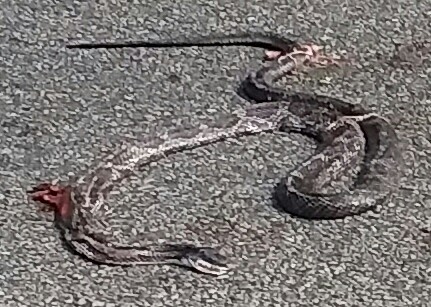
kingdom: Animalia
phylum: Chordata
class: Squamata
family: Colubridae
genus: Pantherophis
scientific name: Pantherophis spiloides
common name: Gray rat snake
